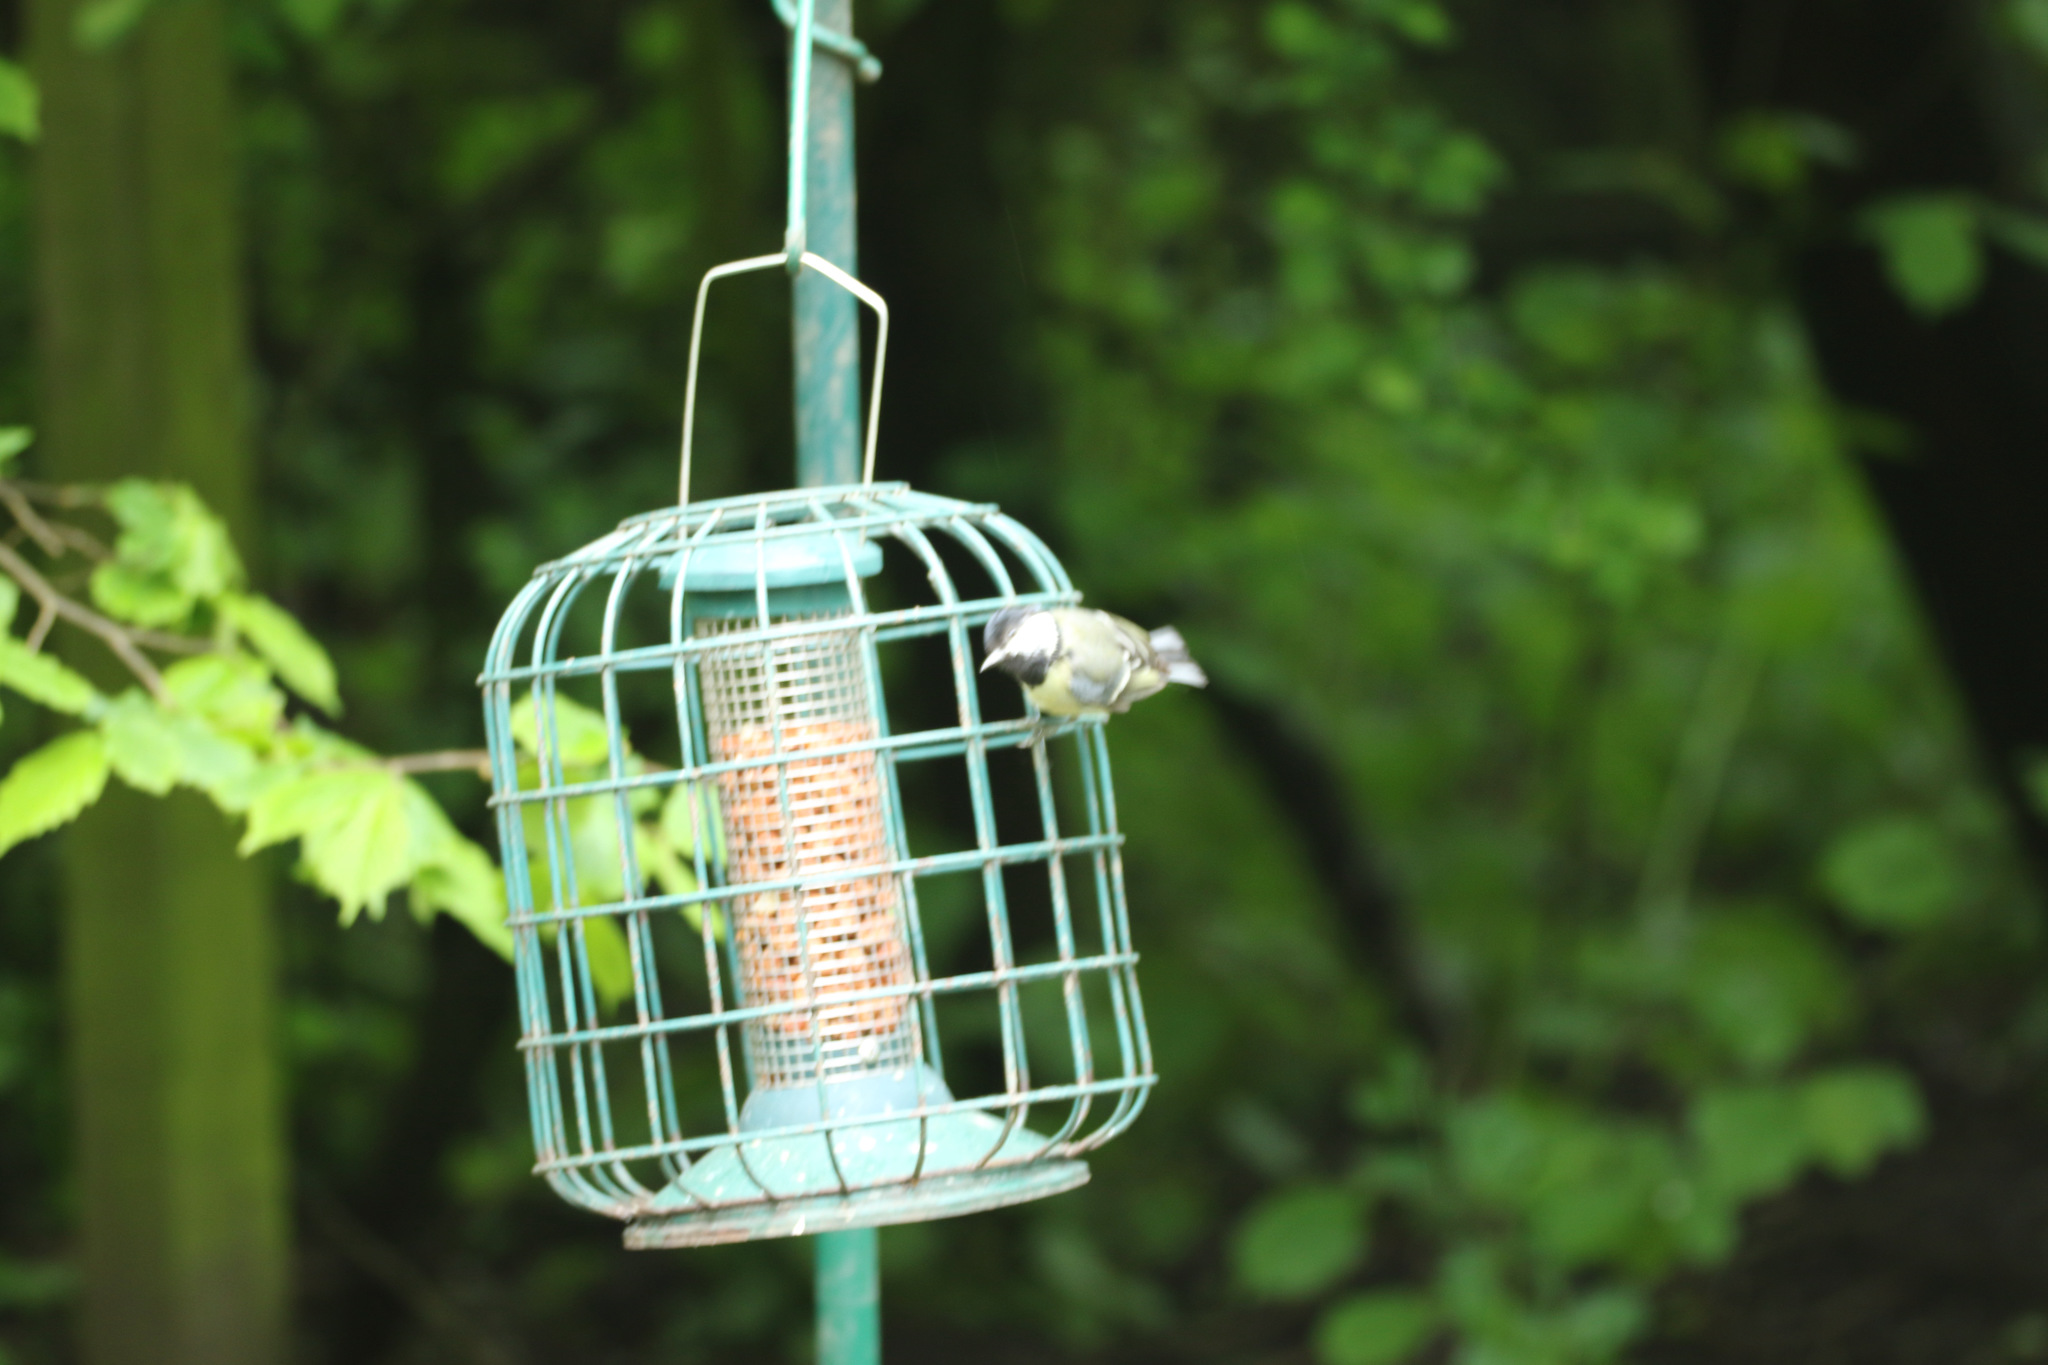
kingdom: Animalia
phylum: Chordata
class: Aves
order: Passeriformes
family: Paridae
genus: Parus
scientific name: Parus major
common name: Great tit
